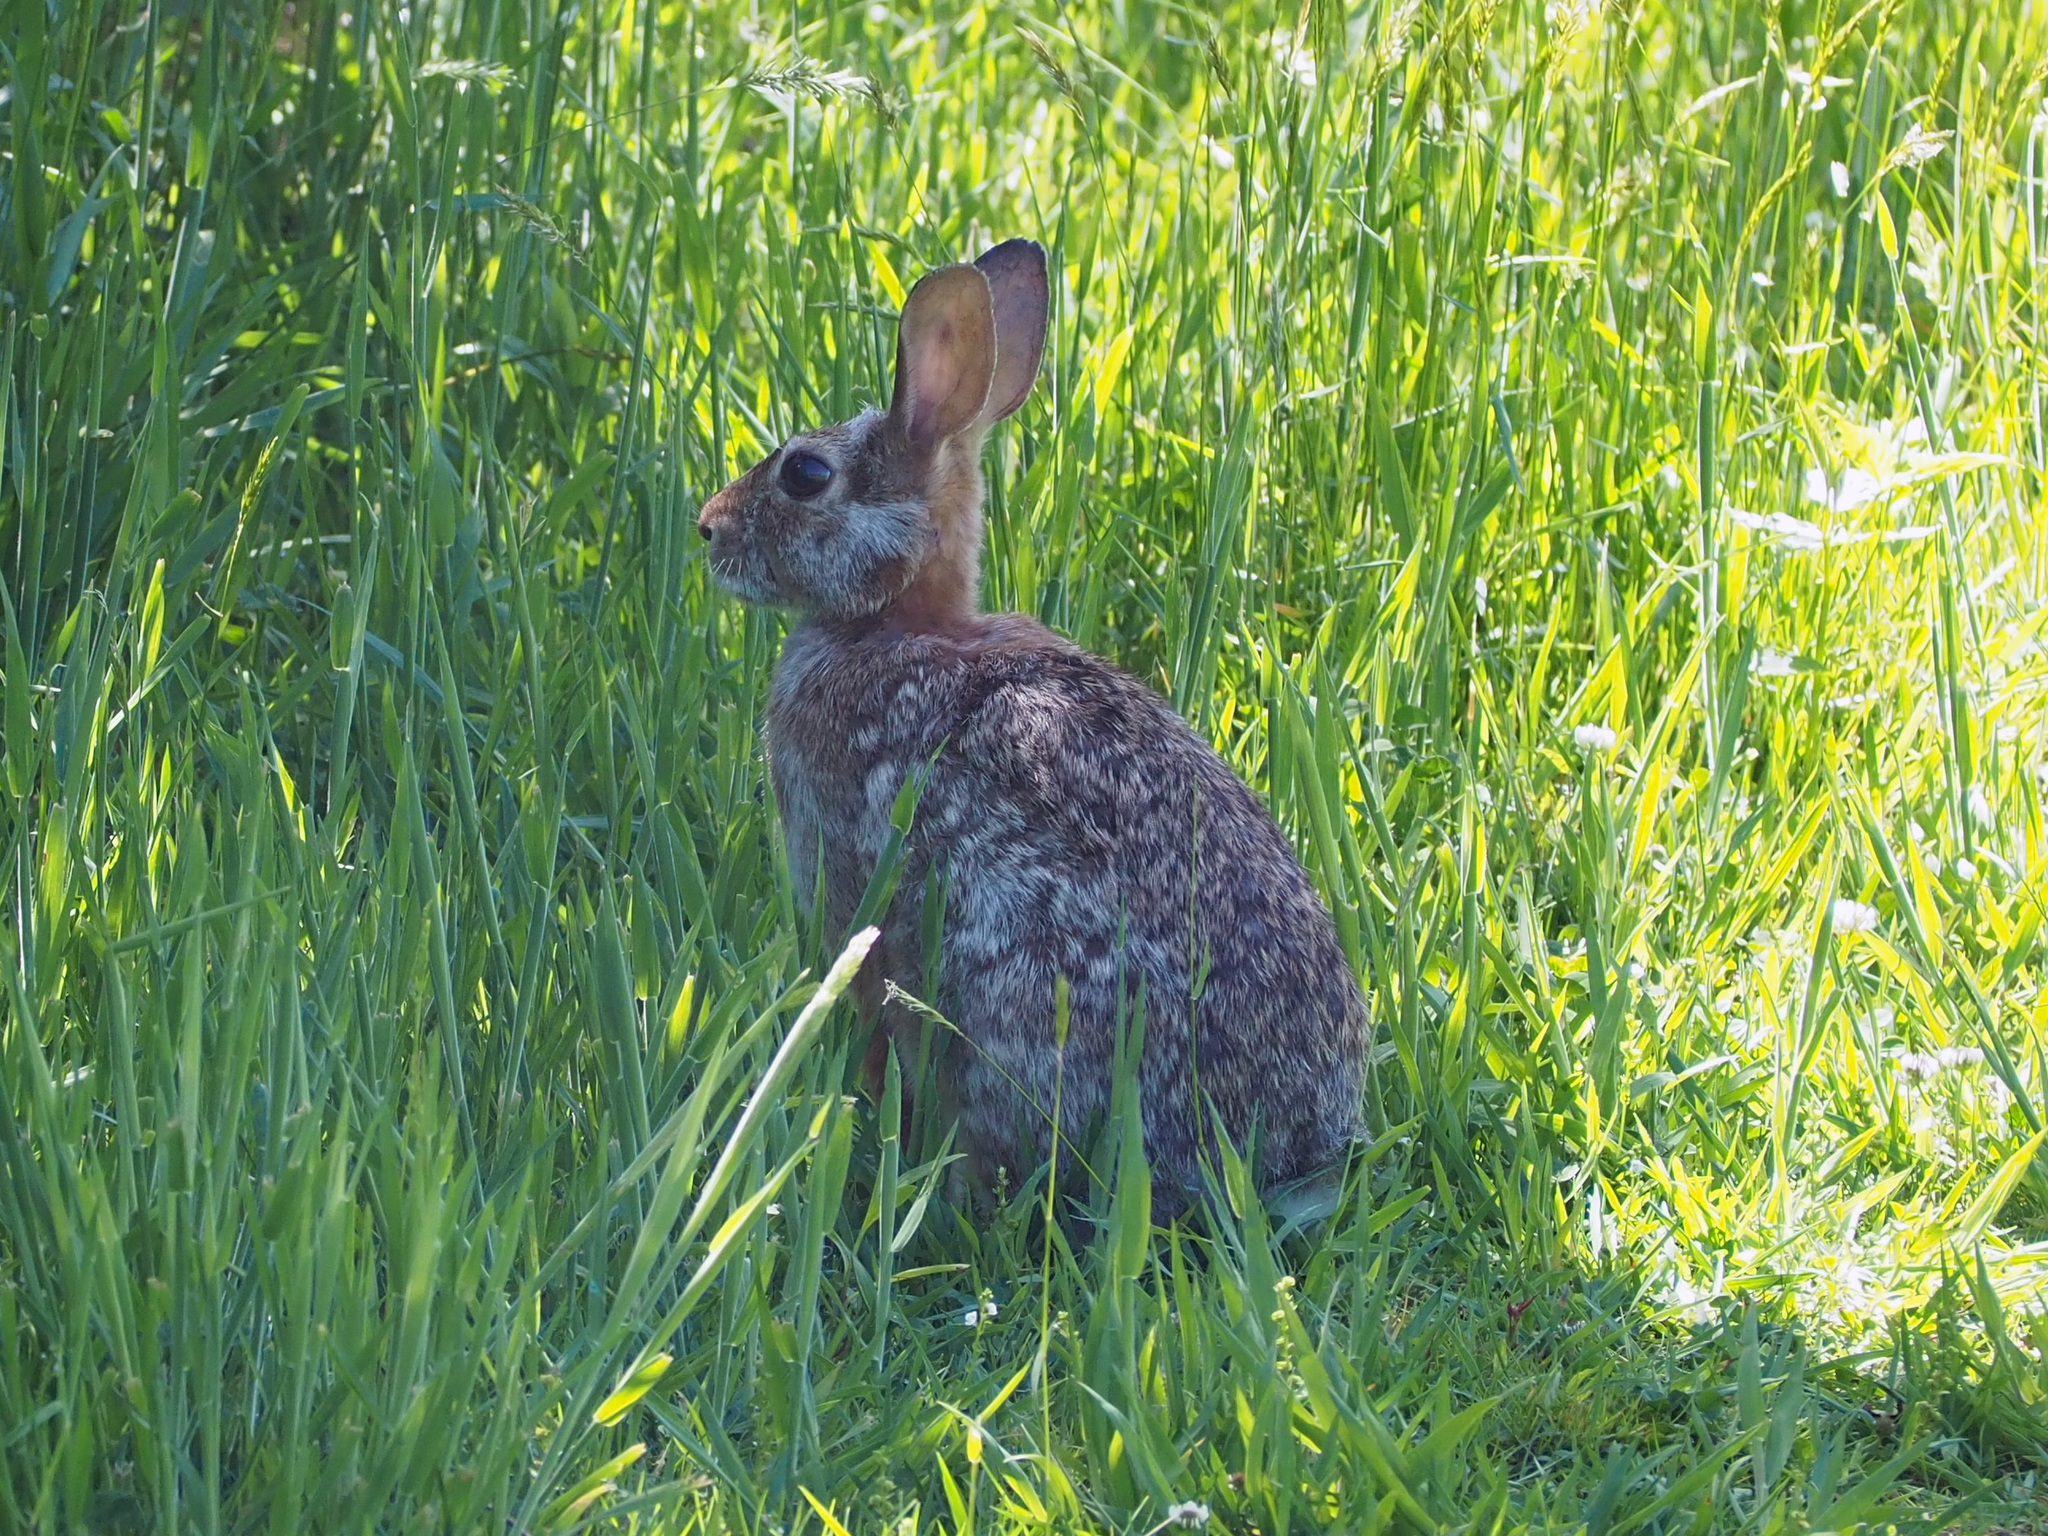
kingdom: Animalia
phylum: Chordata
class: Mammalia
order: Lagomorpha
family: Leporidae
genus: Sylvilagus
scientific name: Sylvilagus floridanus
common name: Eastern cottontail
